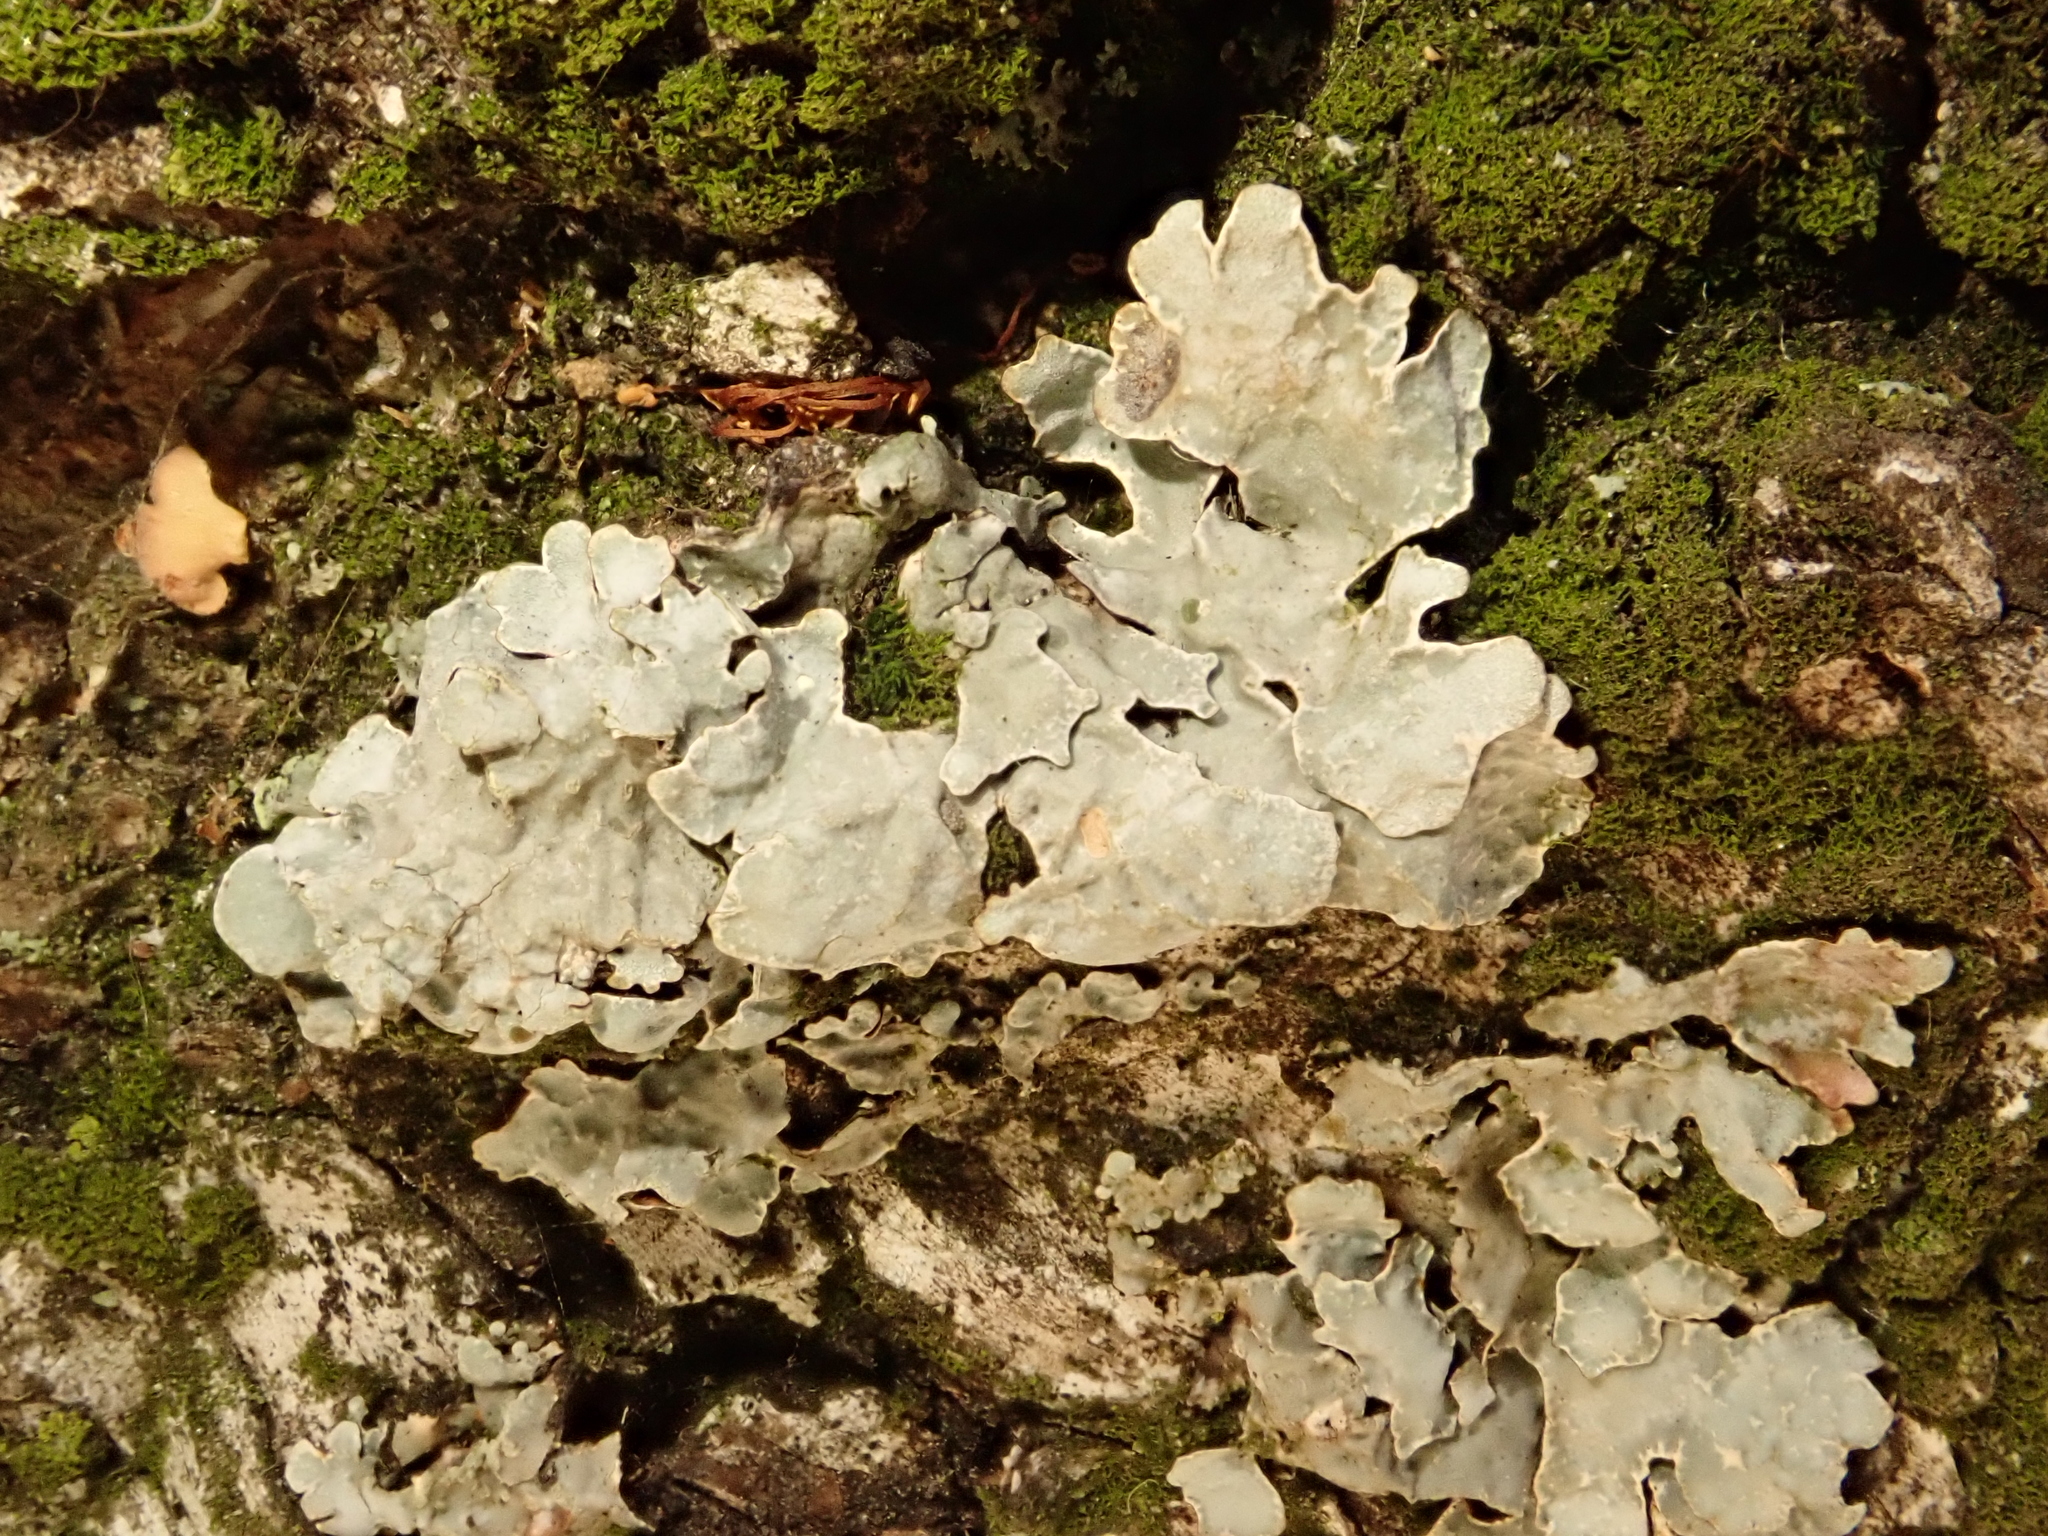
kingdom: Fungi
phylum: Ascomycota
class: Lecanoromycetes
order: Lecanorales
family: Parmeliaceae
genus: Parmelia
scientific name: Parmelia sulcata
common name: Netted shield lichen
